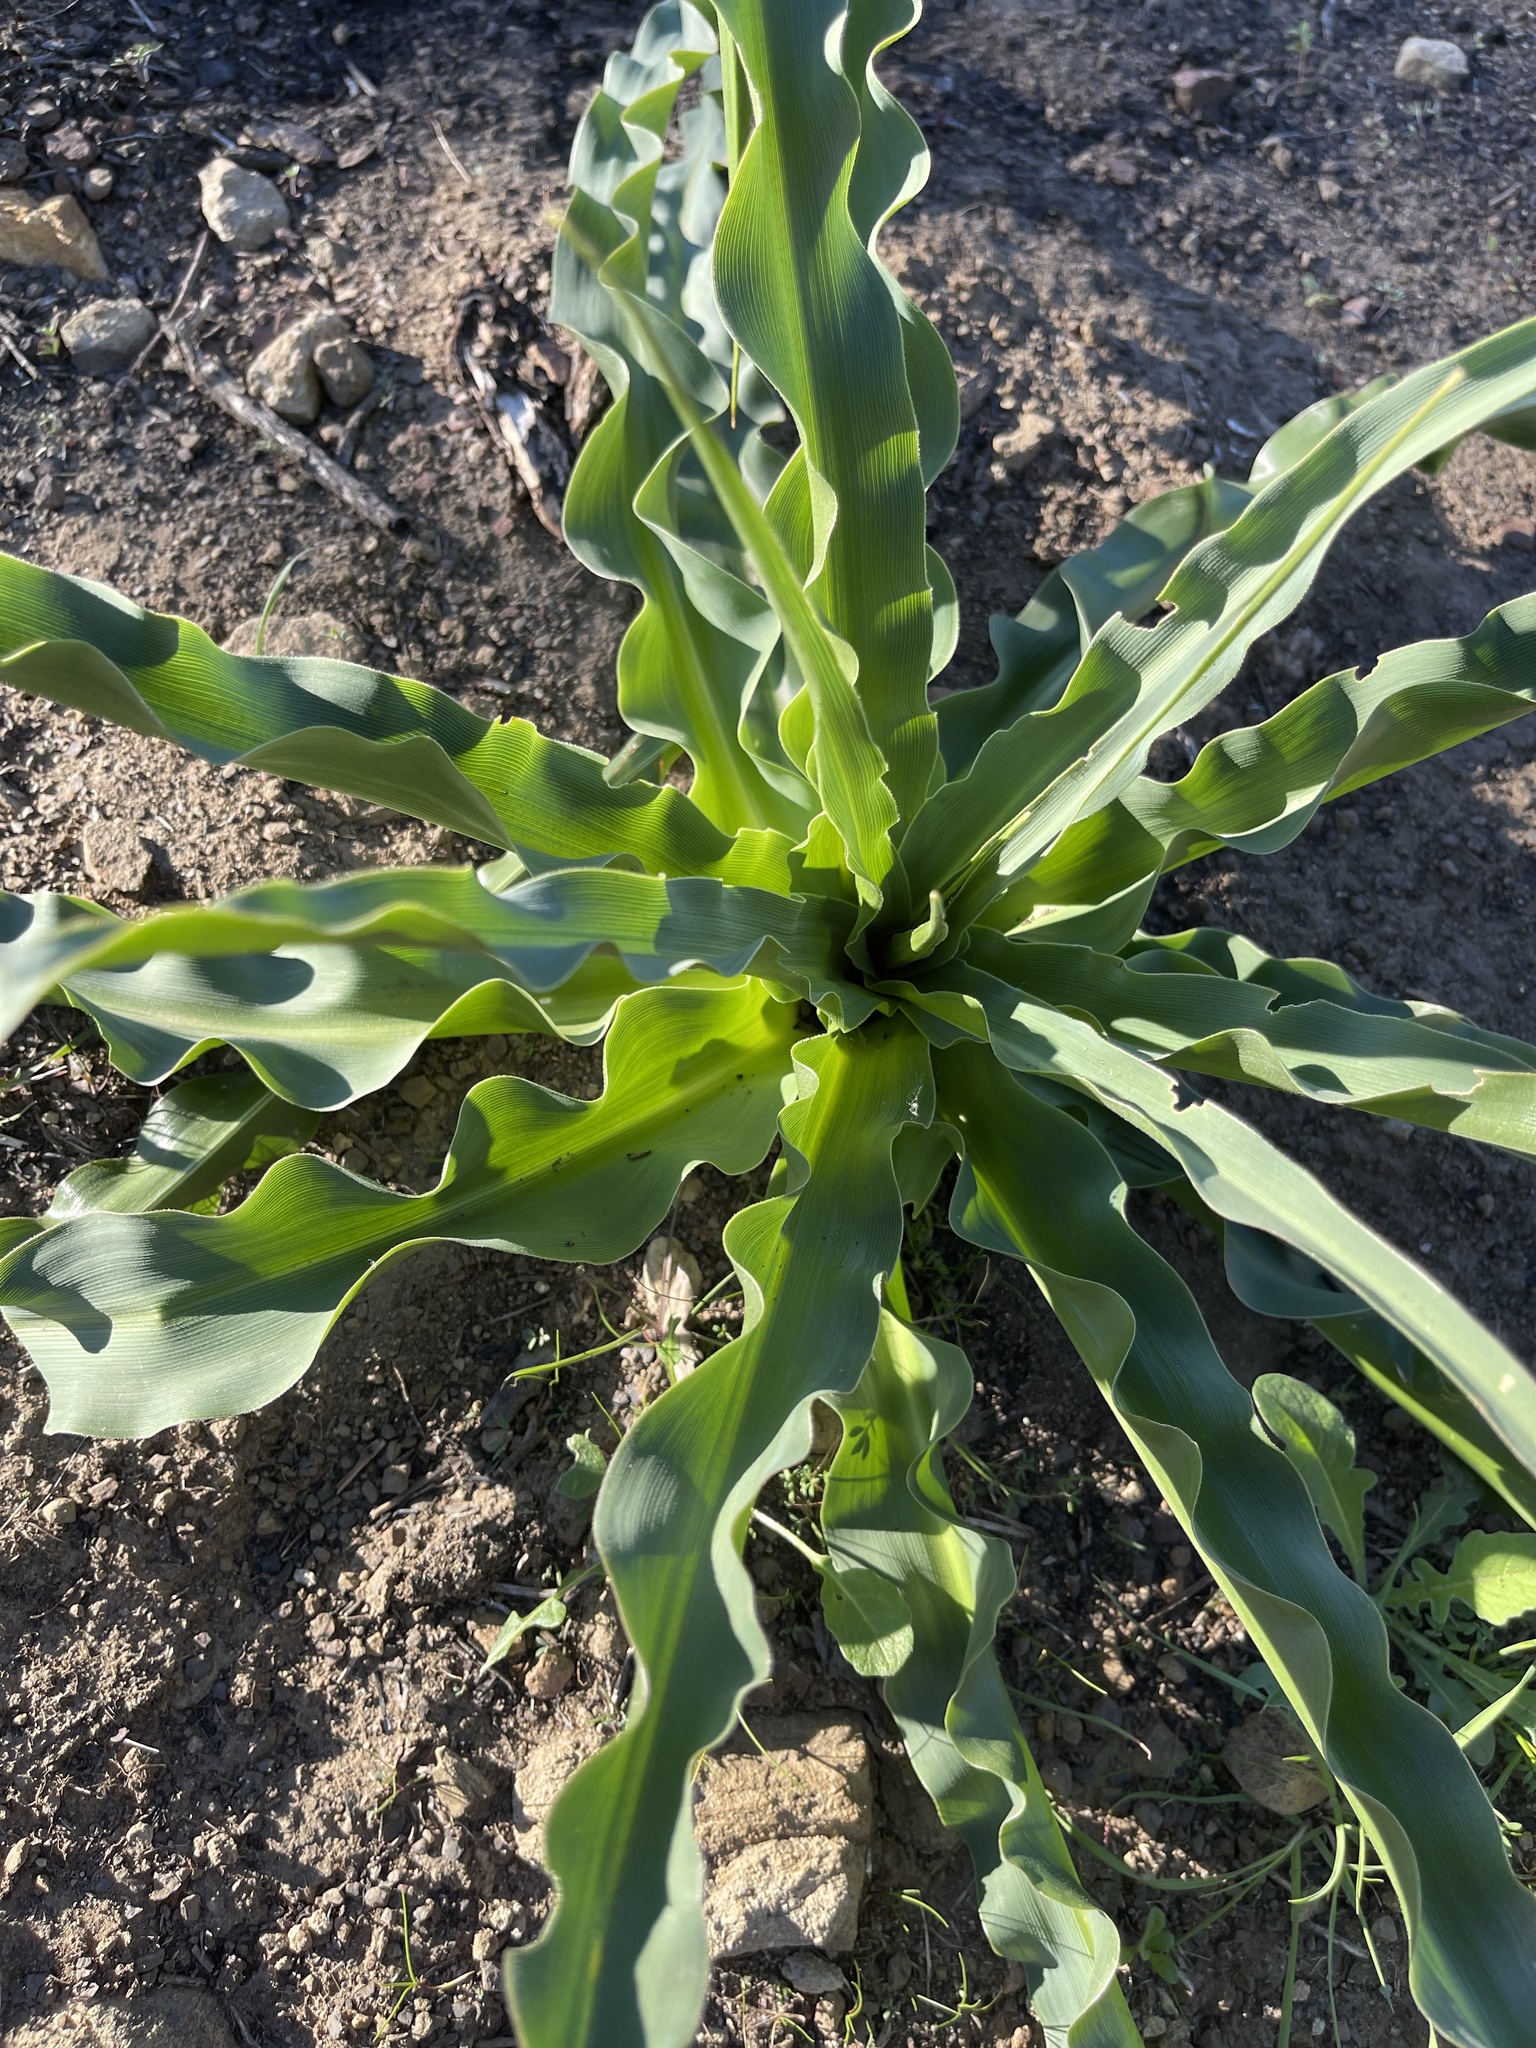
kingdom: Plantae
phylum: Tracheophyta
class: Liliopsida
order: Asparagales
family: Asparagaceae
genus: Chlorogalum
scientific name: Chlorogalum pomeridianum
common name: Amole
